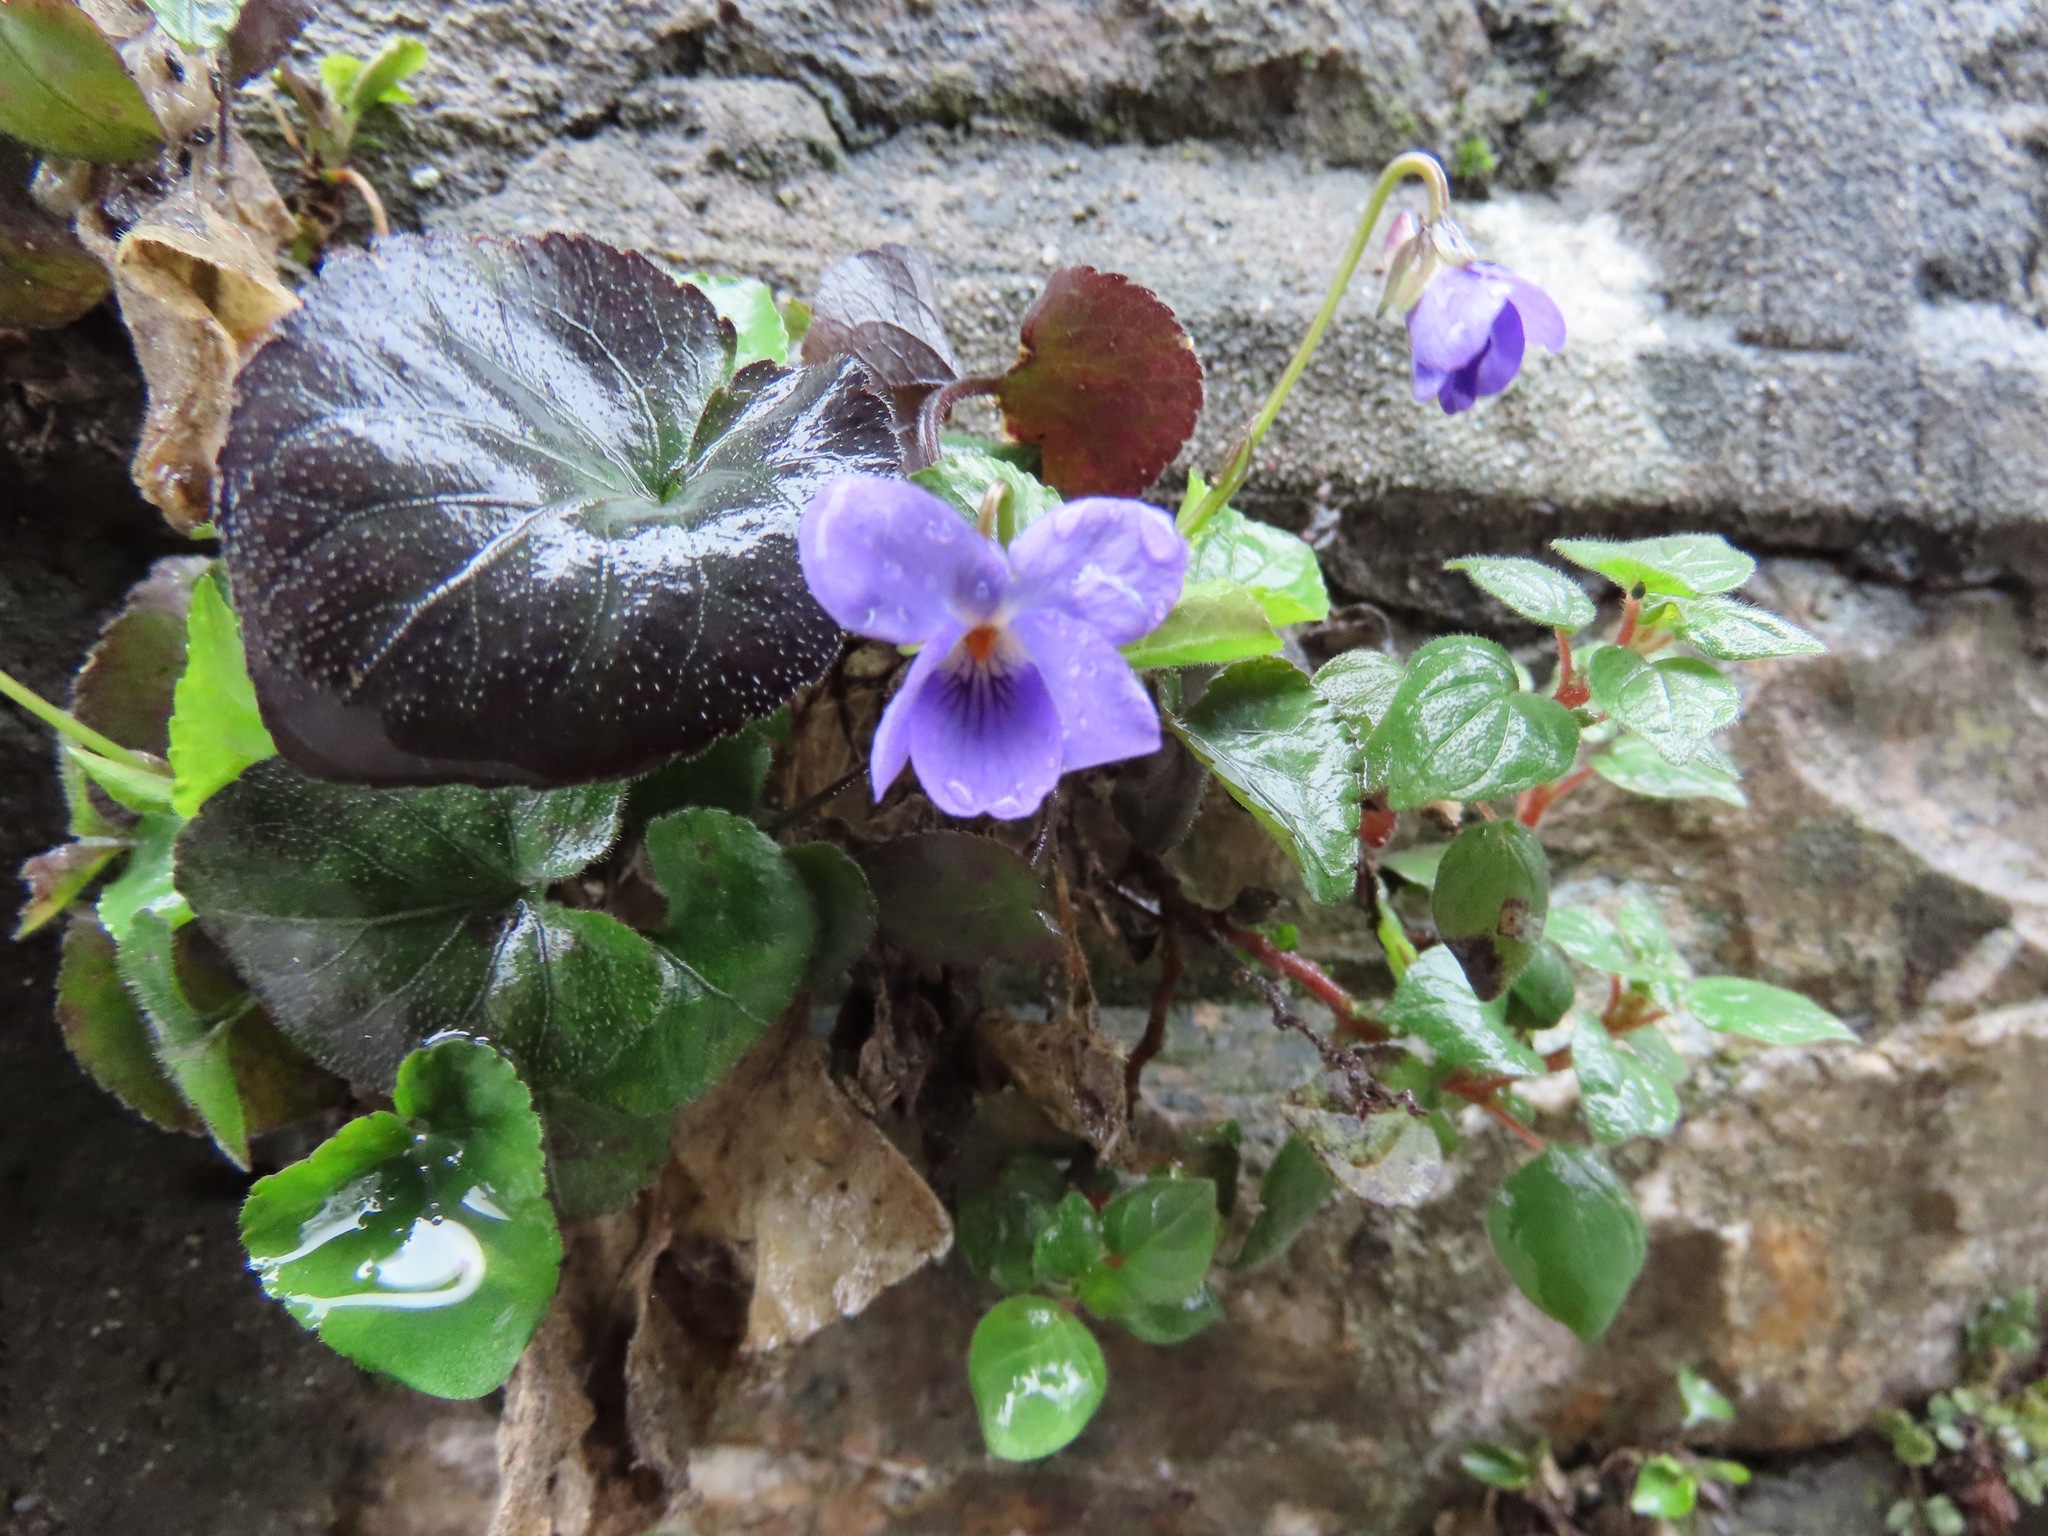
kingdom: Plantae
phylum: Tracheophyta
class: Magnoliopsida
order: Malpighiales
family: Violaceae
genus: Viola
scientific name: Viola alba
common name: White violet
